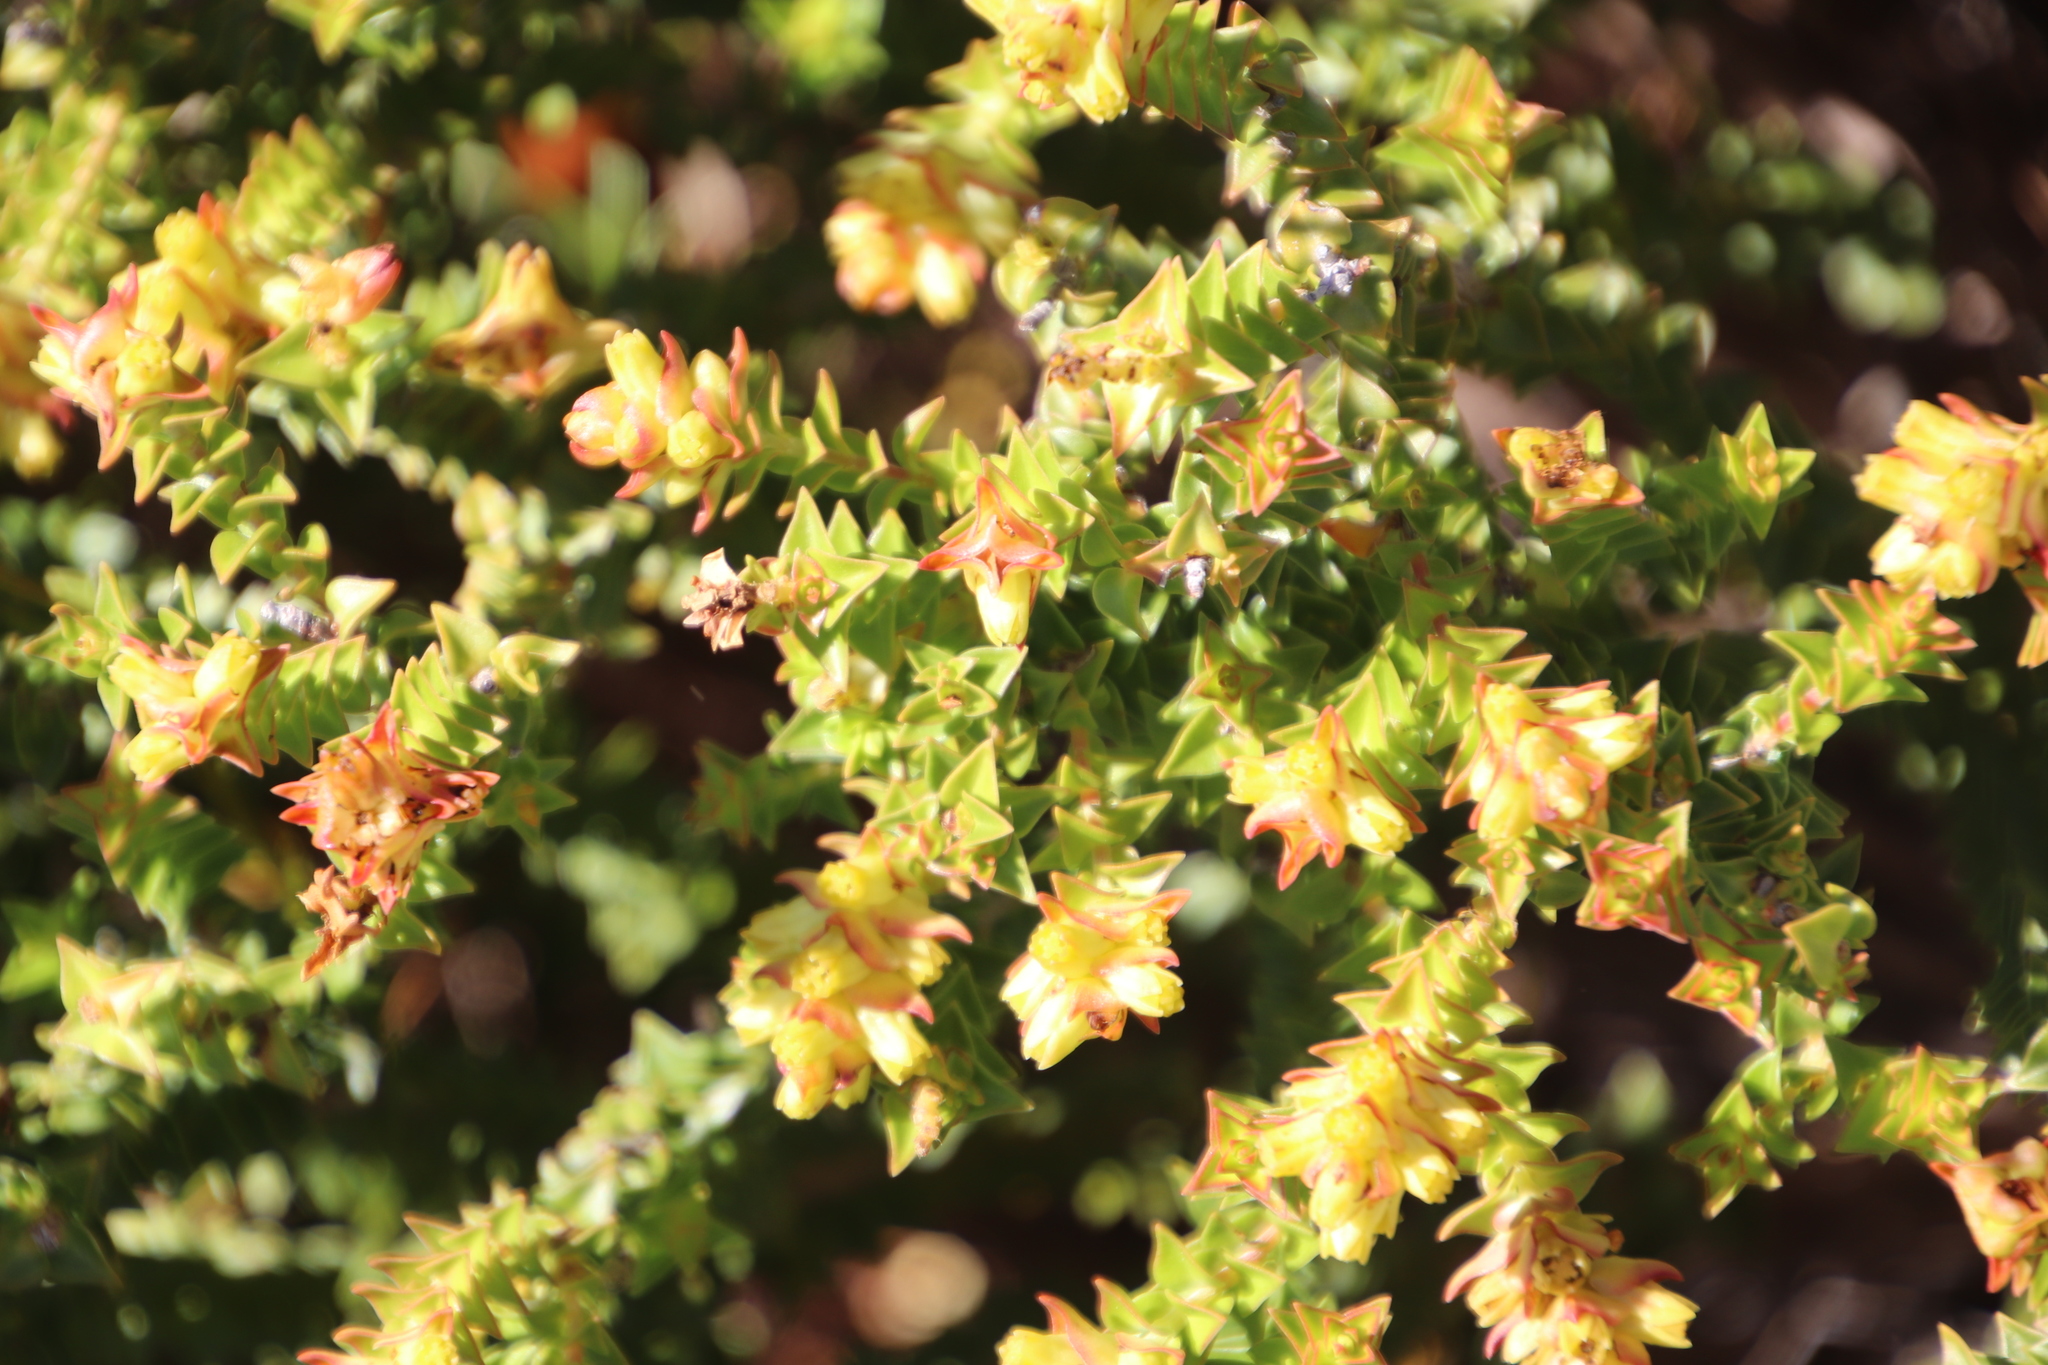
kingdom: Plantae
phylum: Tracheophyta
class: Magnoliopsida
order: Myrtales
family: Penaeaceae
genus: Penaea
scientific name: Penaea mucronata
